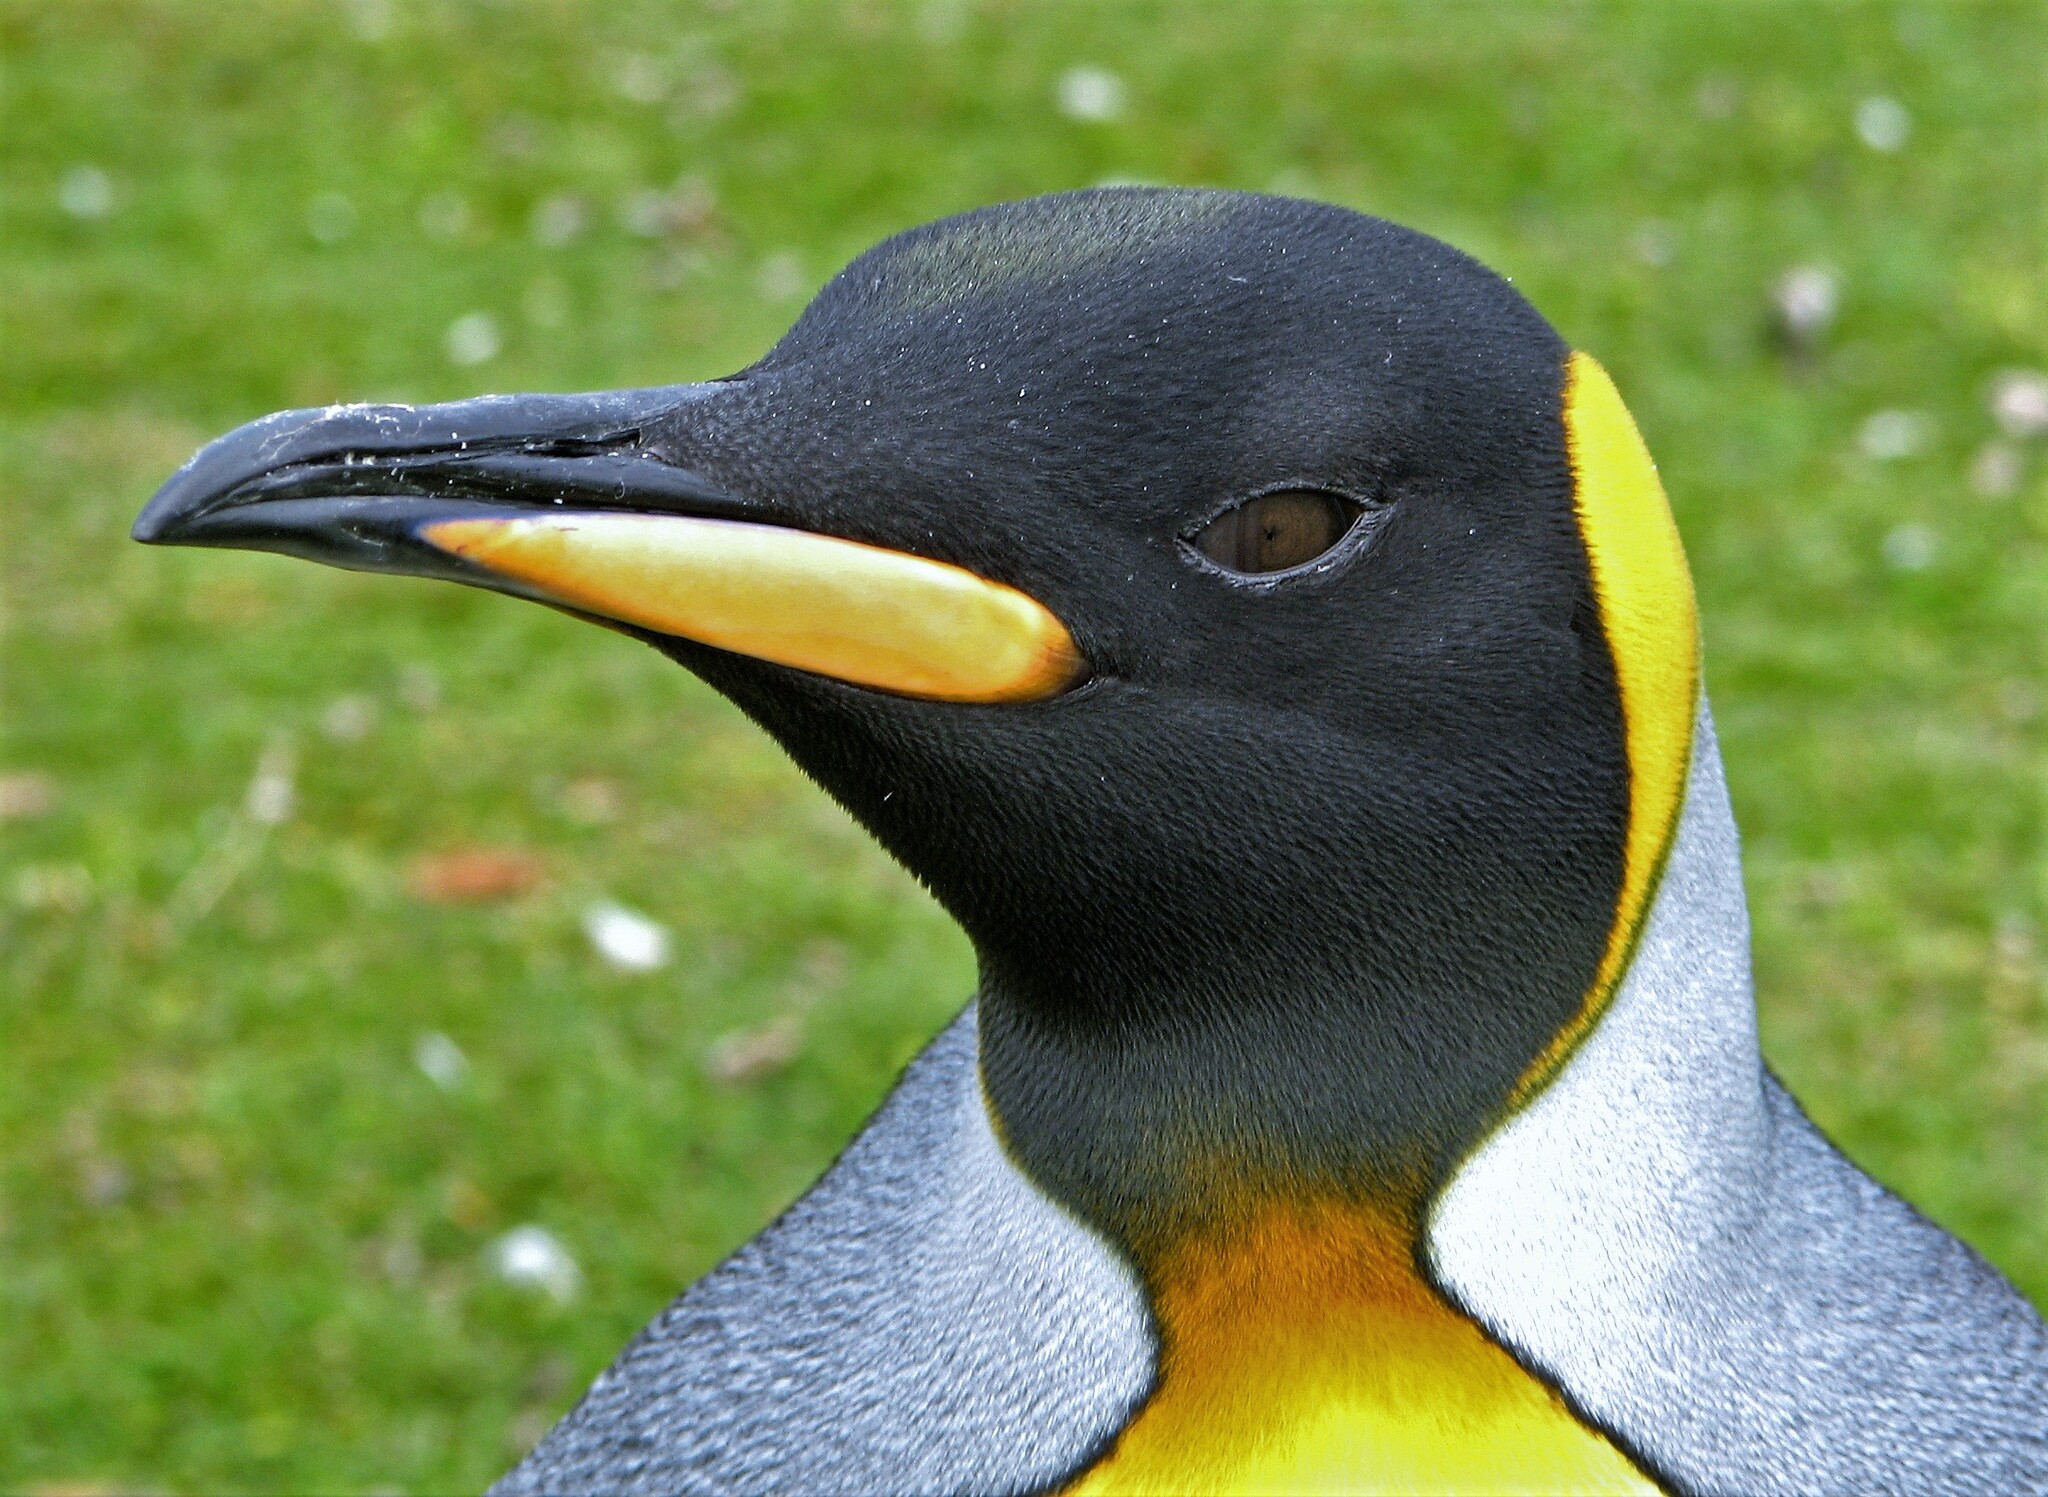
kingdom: Animalia
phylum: Chordata
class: Aves
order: Sphenisciformes
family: Spheniscidae
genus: Aptenodytes
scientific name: Aptenodytes patagonicus
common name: King penguin
